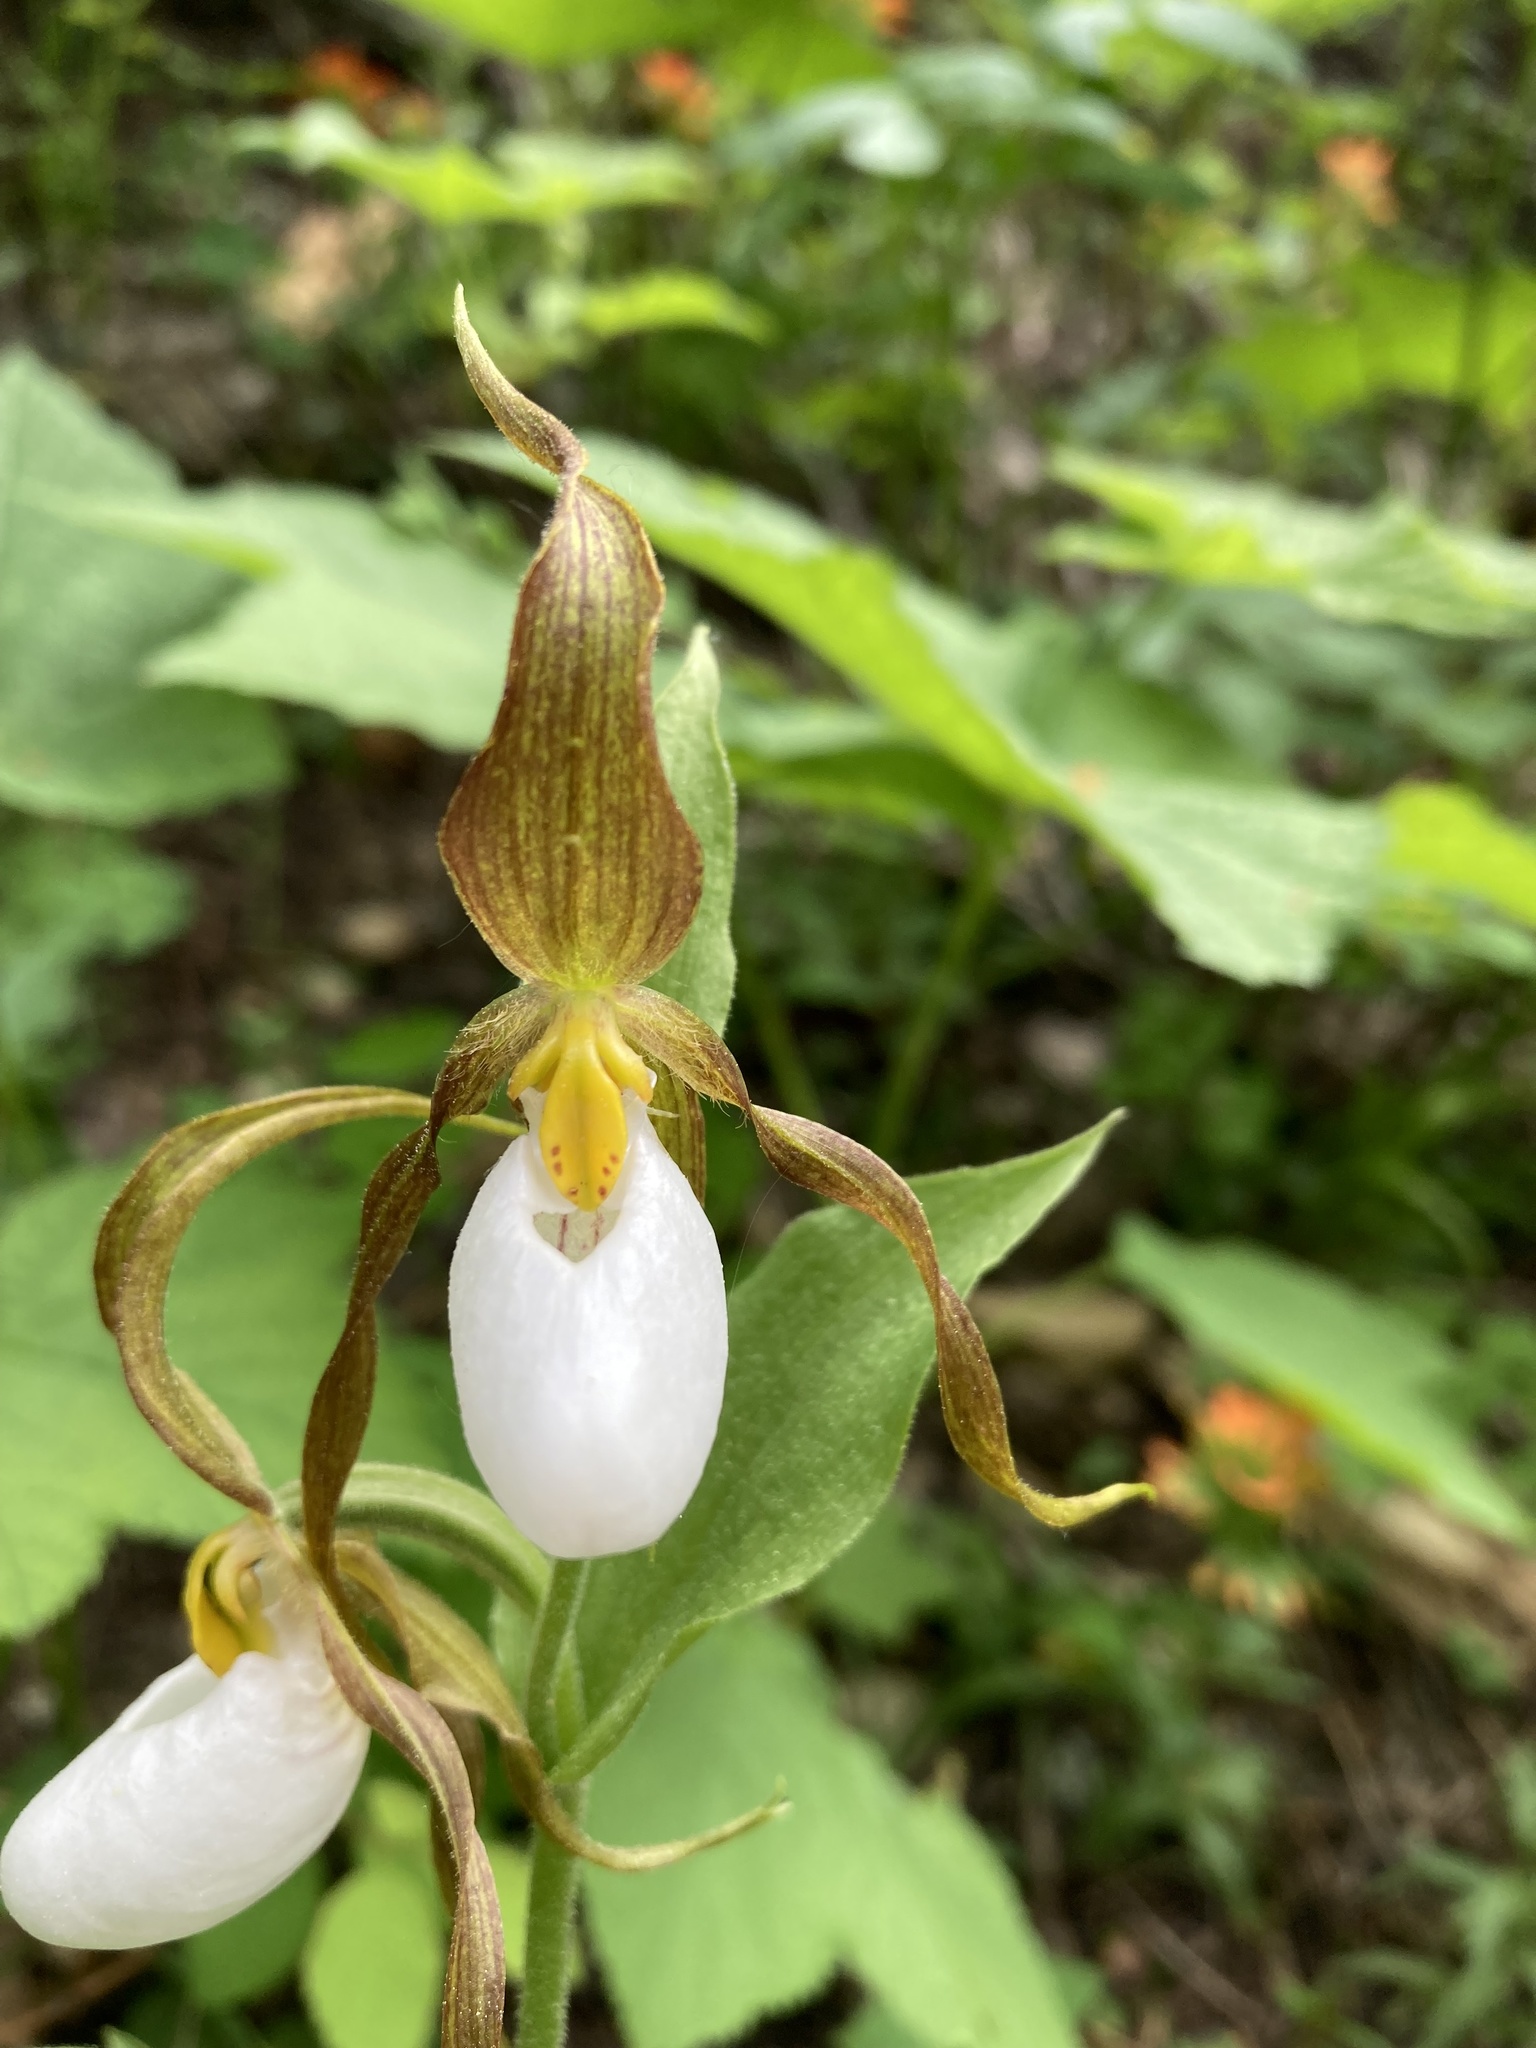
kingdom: Plantae
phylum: Tracheophyta
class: Liliopsida
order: Asparagales
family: Orchidaceae
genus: Cypripedium
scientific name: Cypripedium montanum
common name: Mountain lady's-slipper
